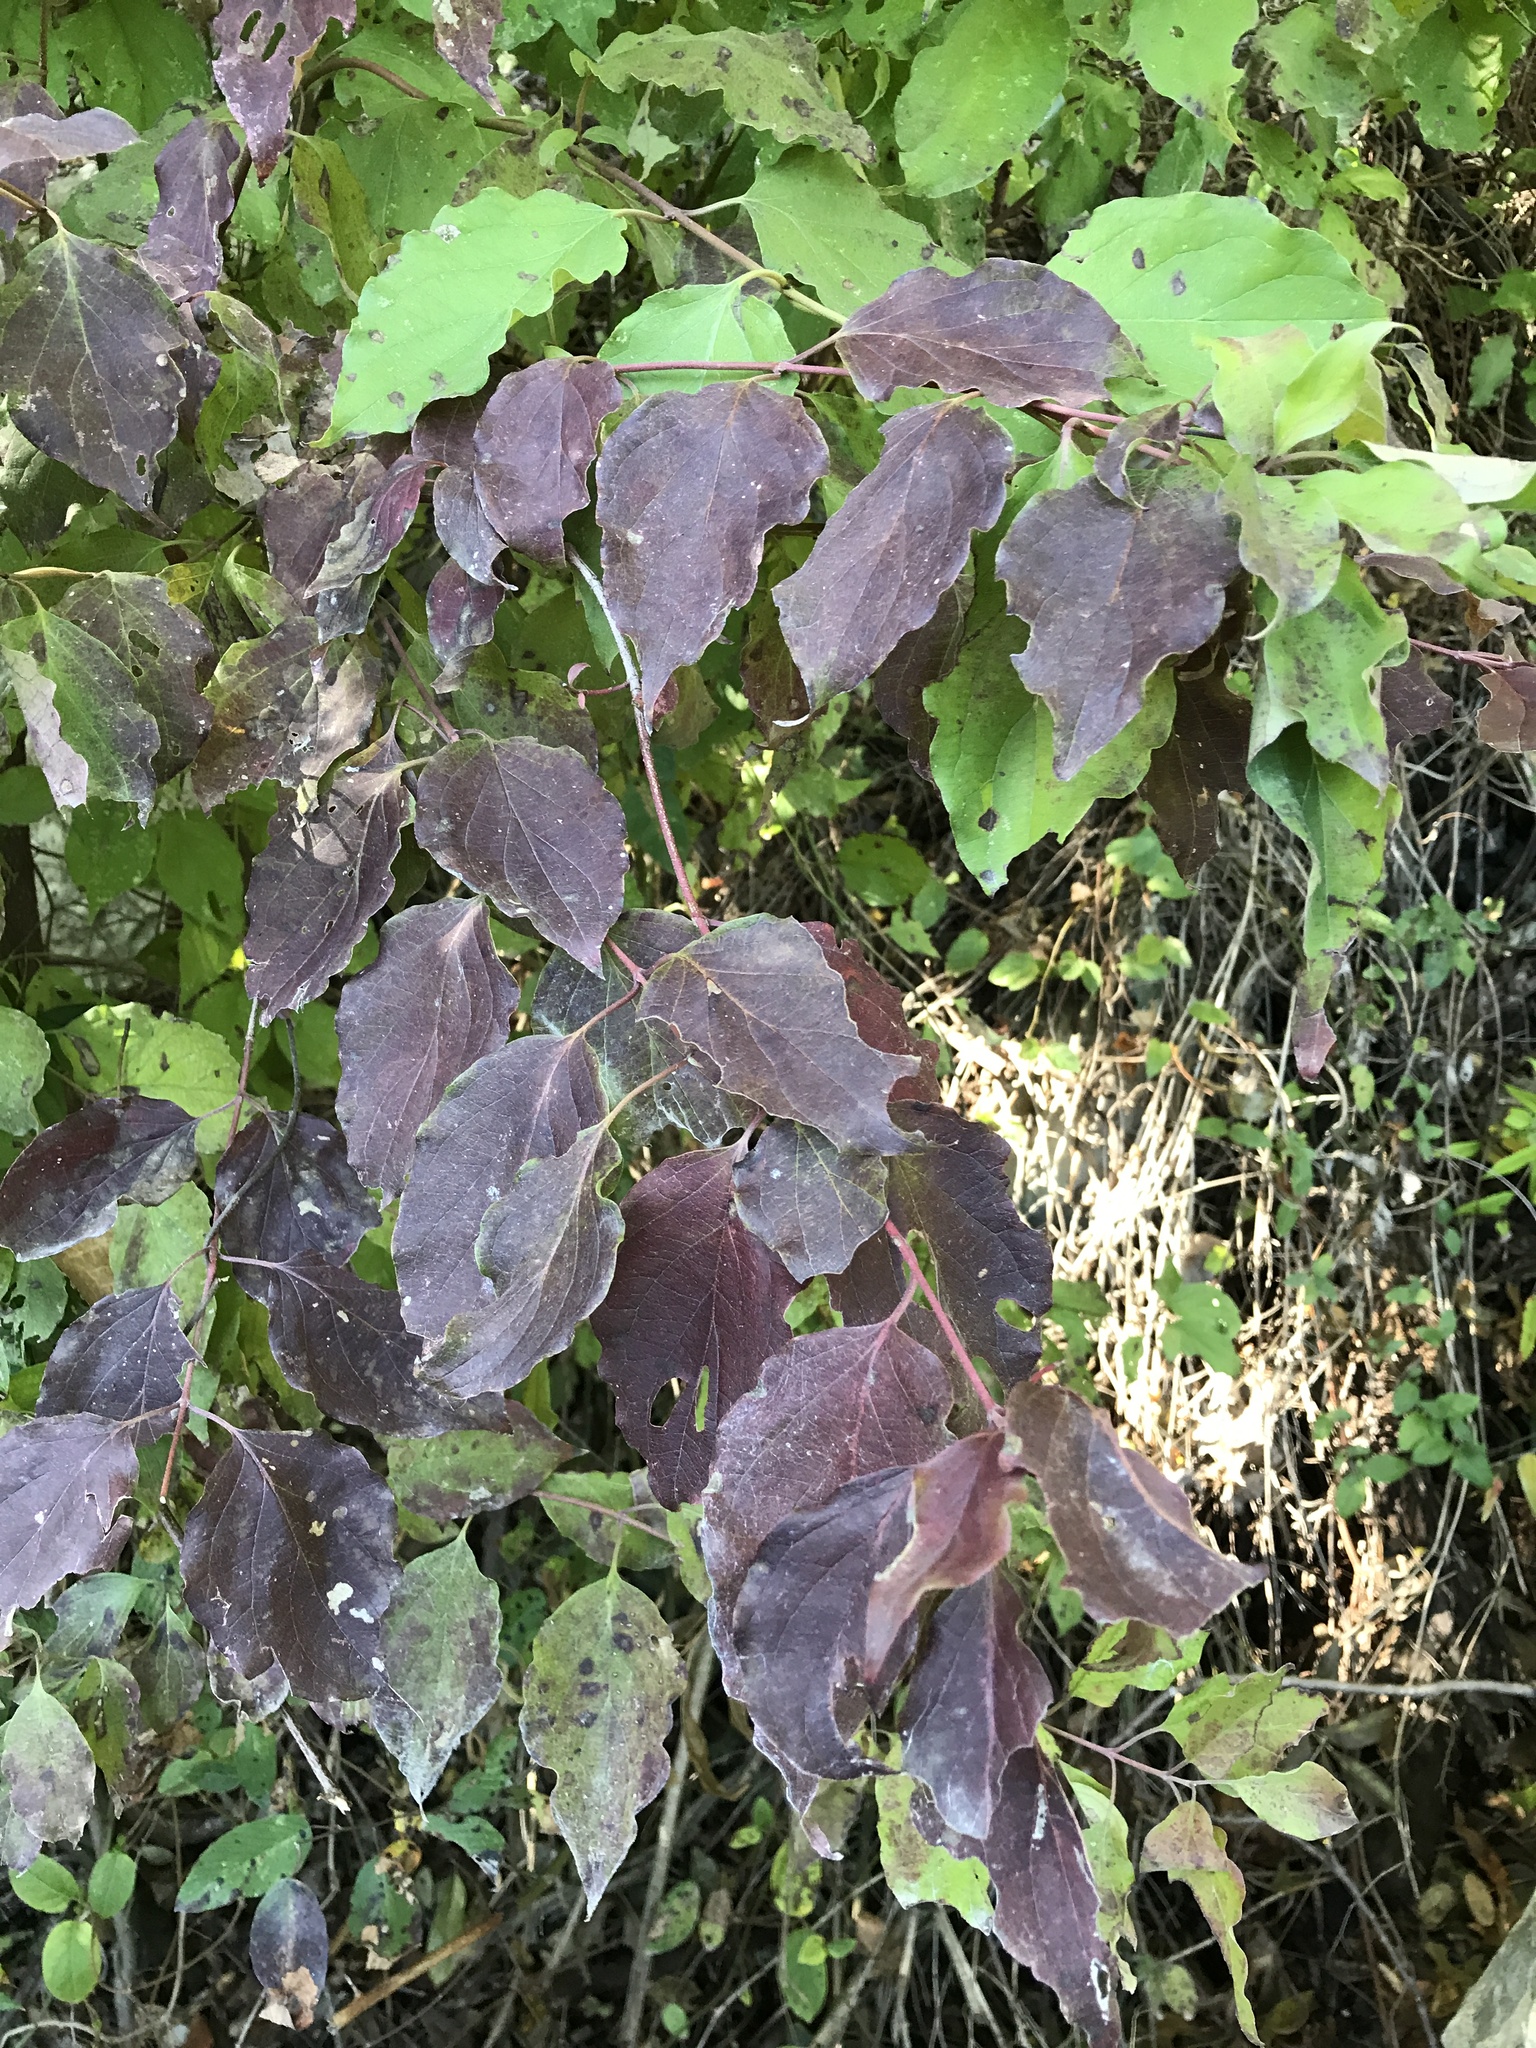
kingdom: Plantae
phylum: Tracheophyta
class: Magnoliopsida
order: Cornales
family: Cornaceae
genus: Cornus
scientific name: Cornus drummondii
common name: Rough-leaf dogwood
